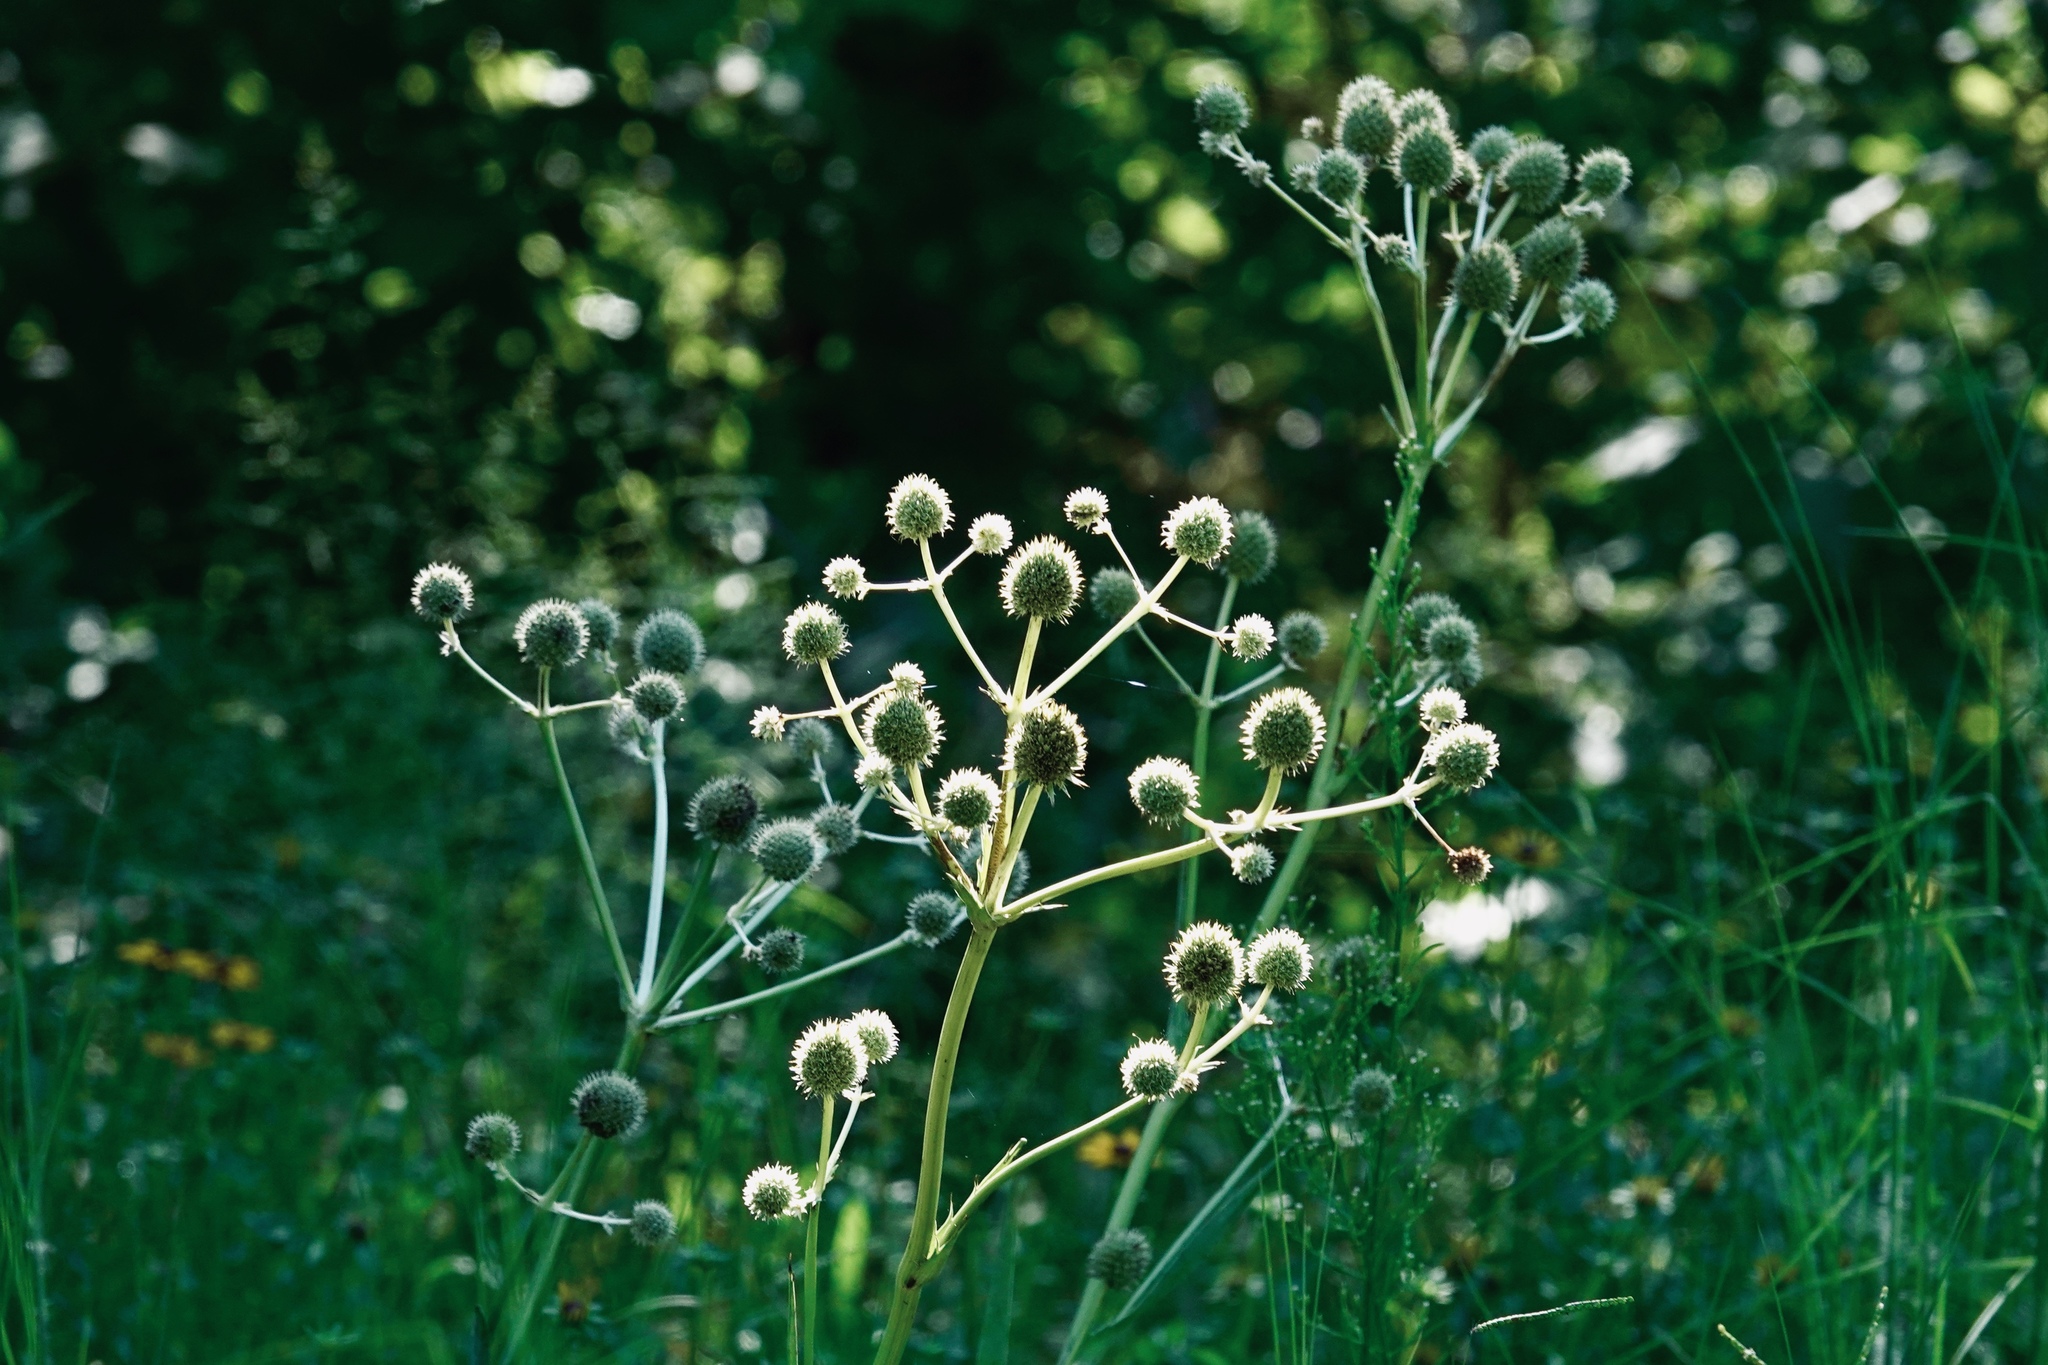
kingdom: Plantae
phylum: Tracheophyta
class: Magnoliopsida
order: Apiales
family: Apiaceae
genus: Eryngium
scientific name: Eryngium yuccifolium
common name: Button eryngo
